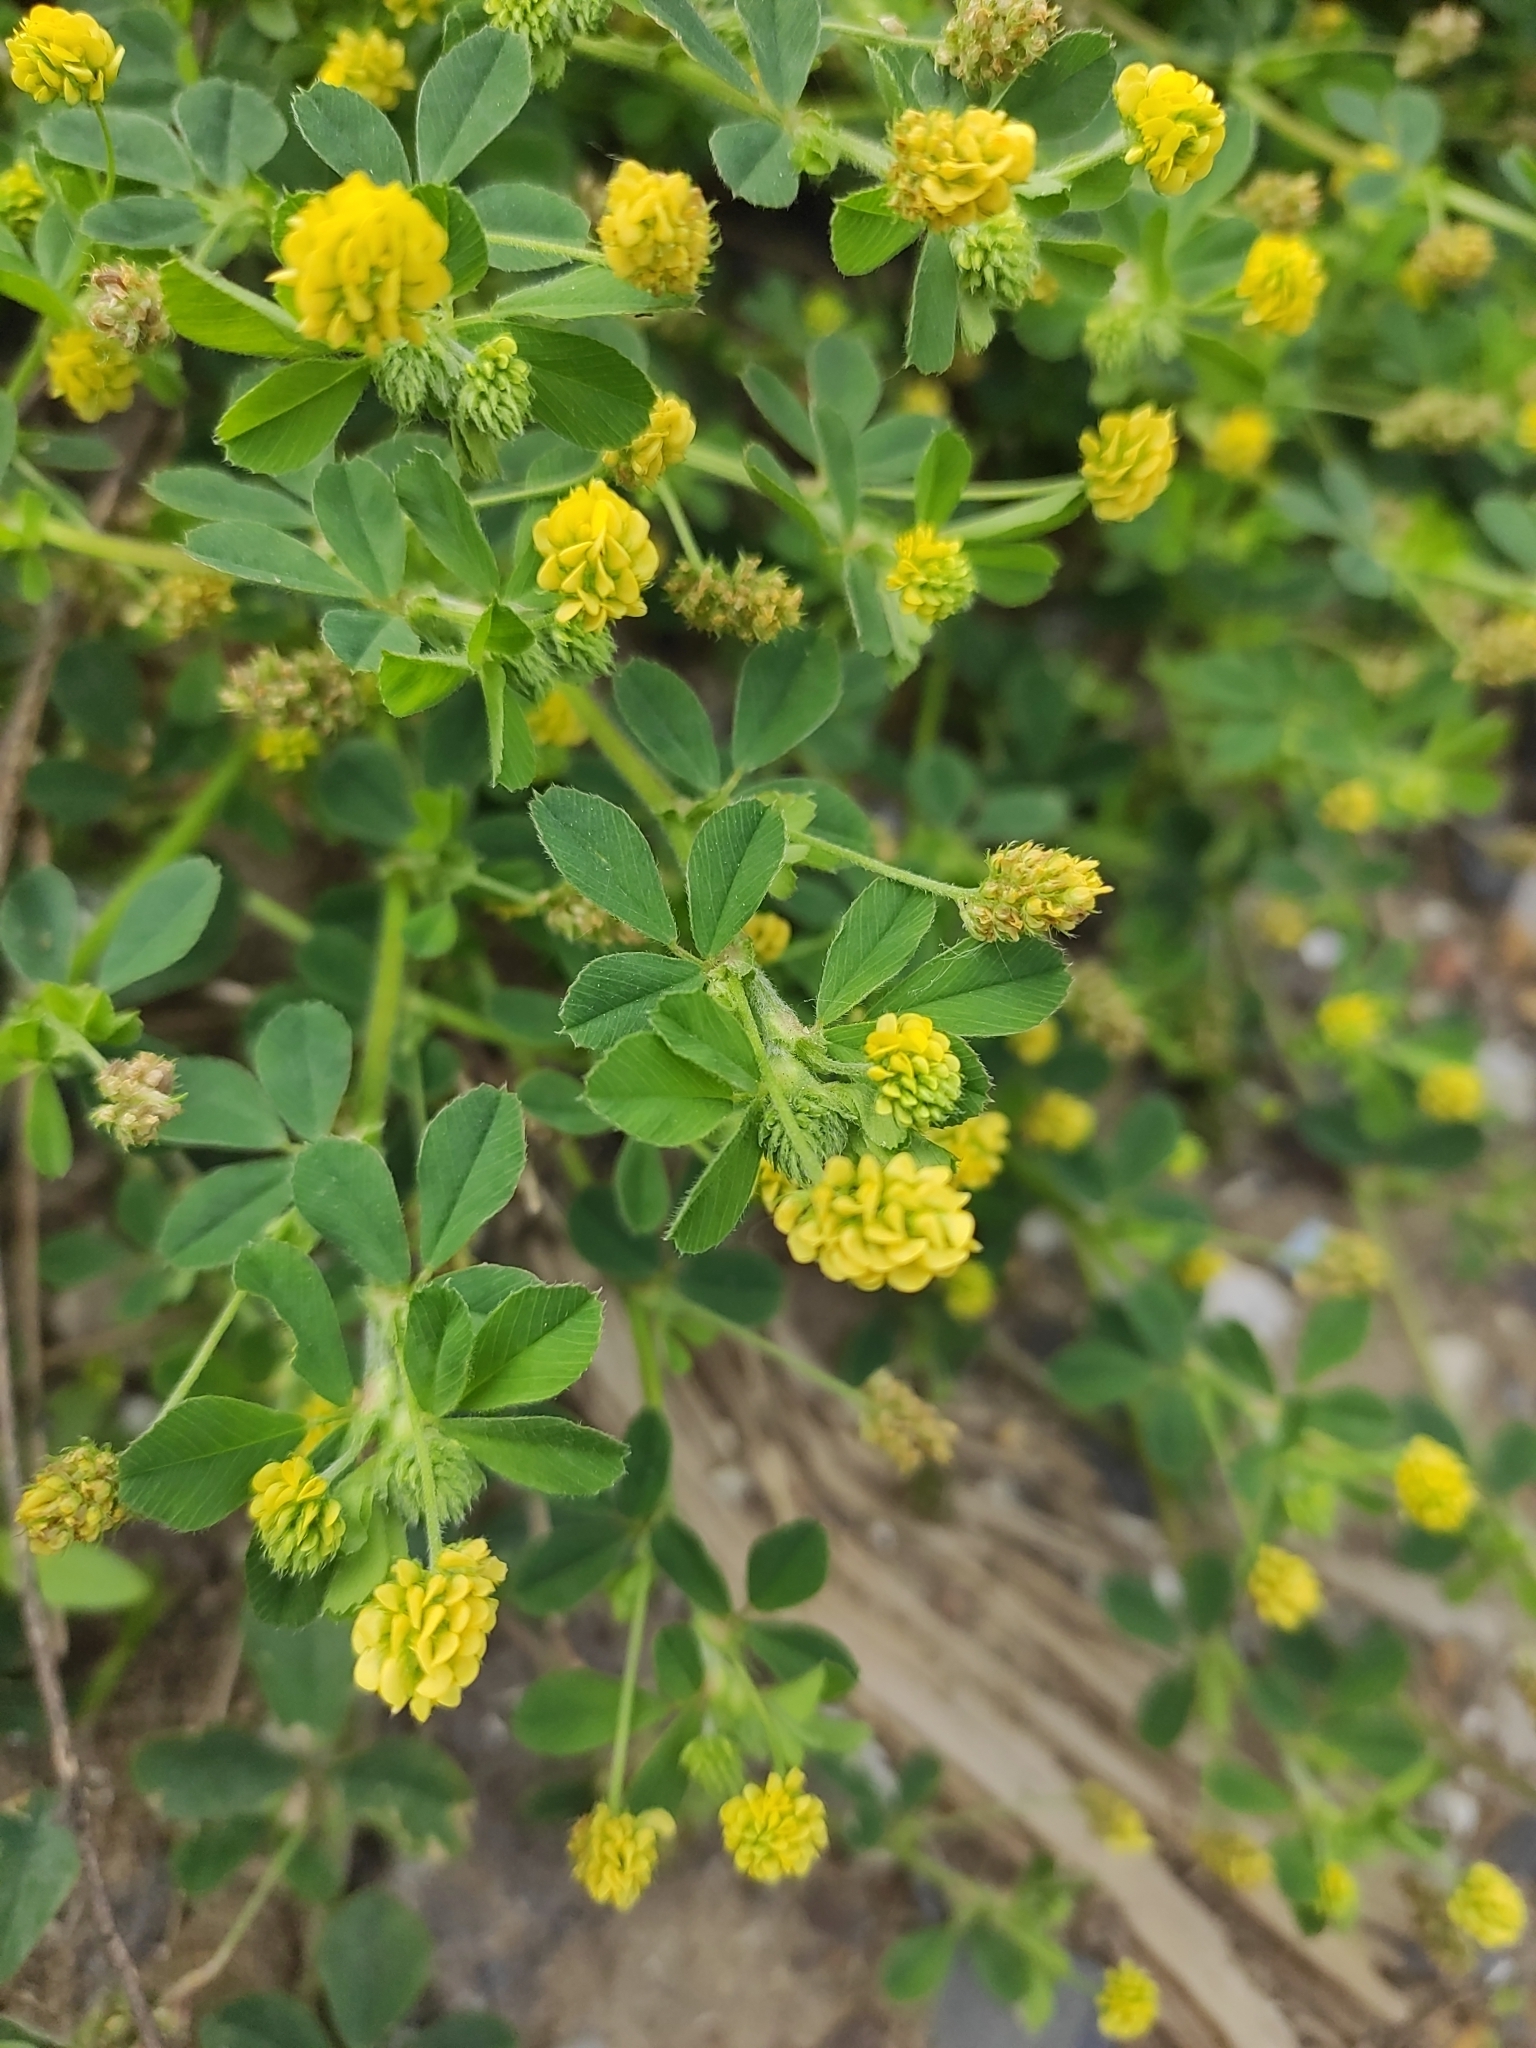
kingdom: Plantae
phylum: Tracheophyta
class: Magnoliopsida
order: Fabales
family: Fabaceae
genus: Medicago
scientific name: Medicago lupulina
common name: Black medick
